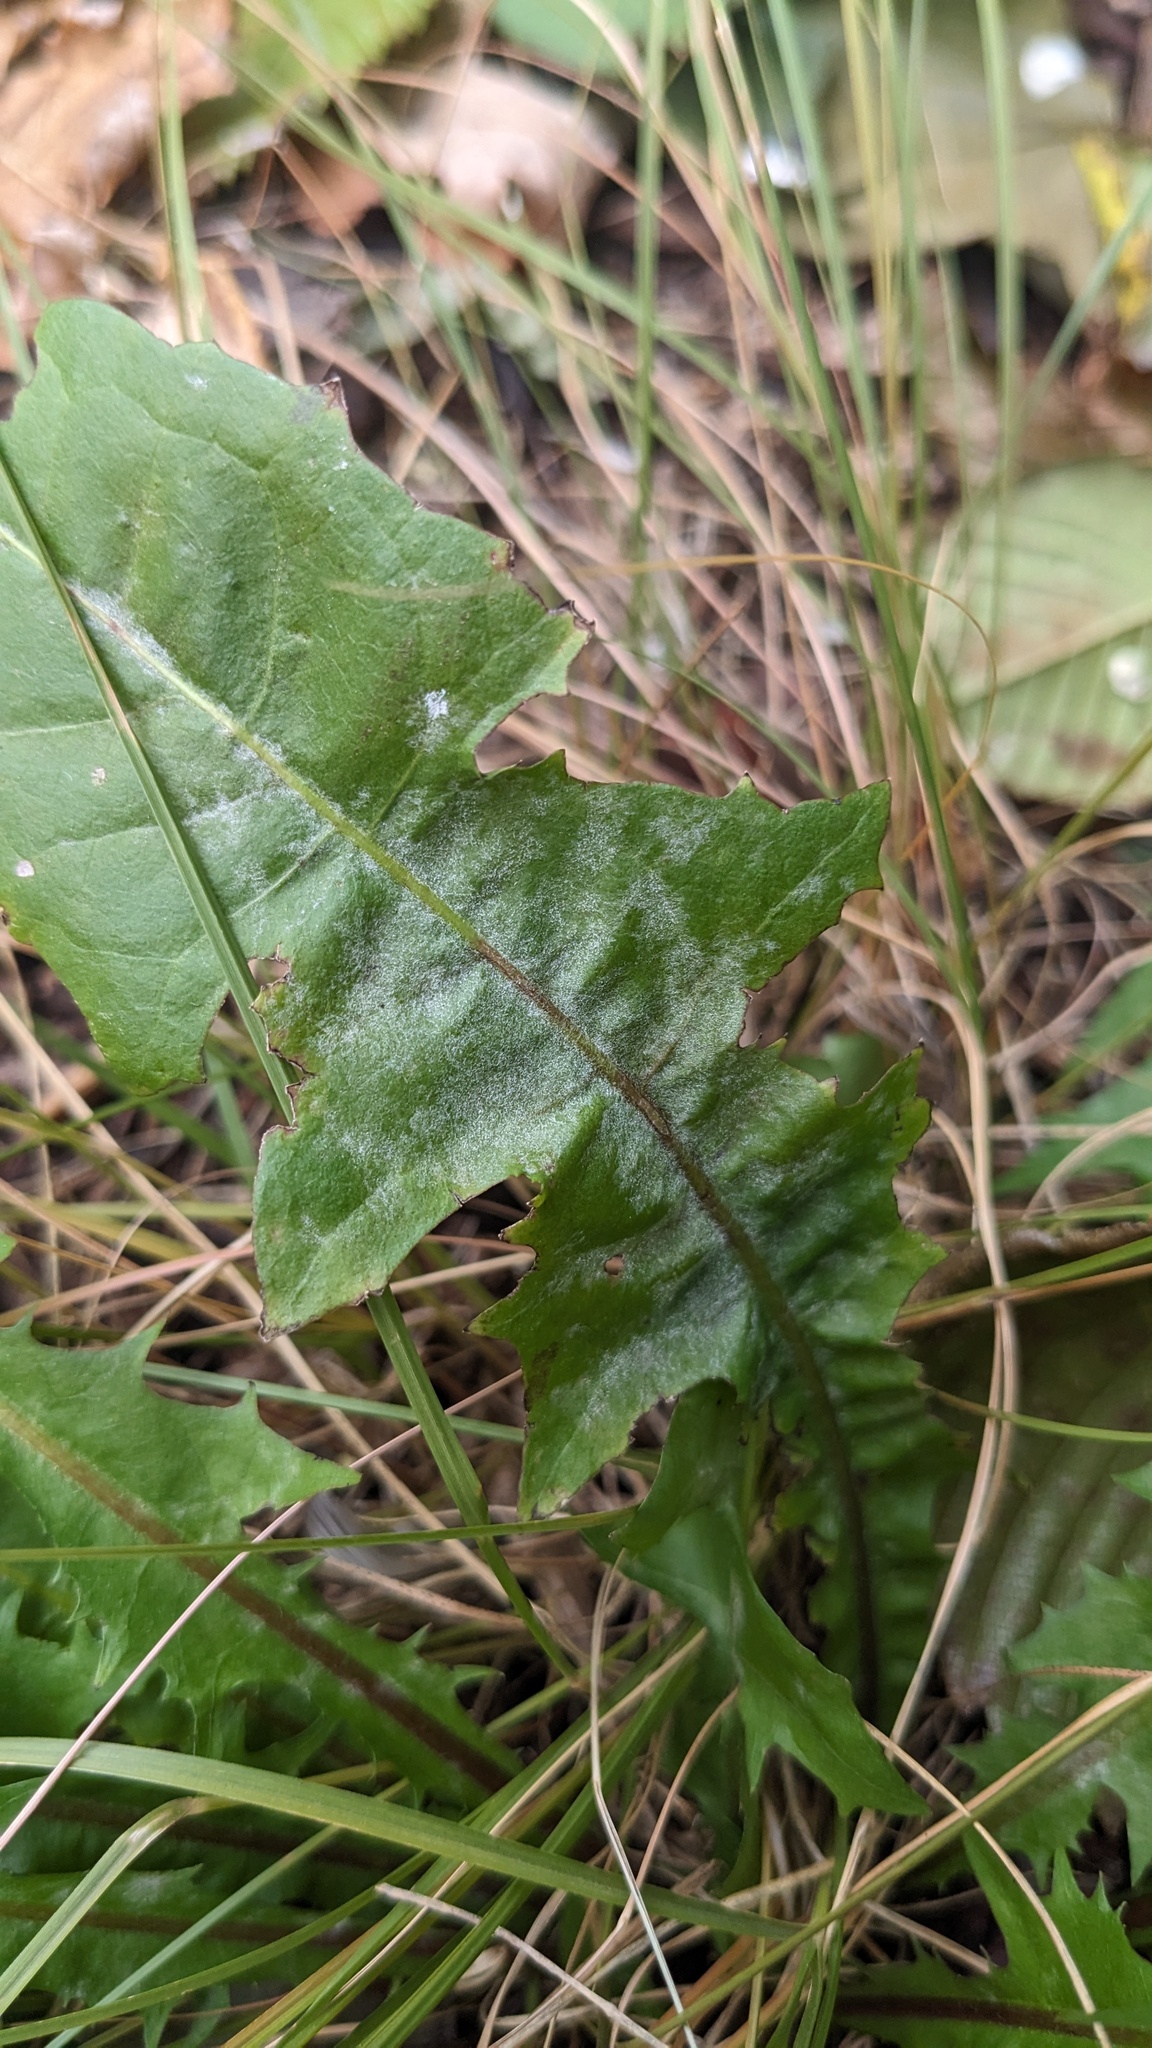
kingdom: Fungi
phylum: Ascomycota
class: Leotiomycetes
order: Helotiales
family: Erysiphaceae
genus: Podosphaera
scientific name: Podosphaera erigerontis-canadensis
